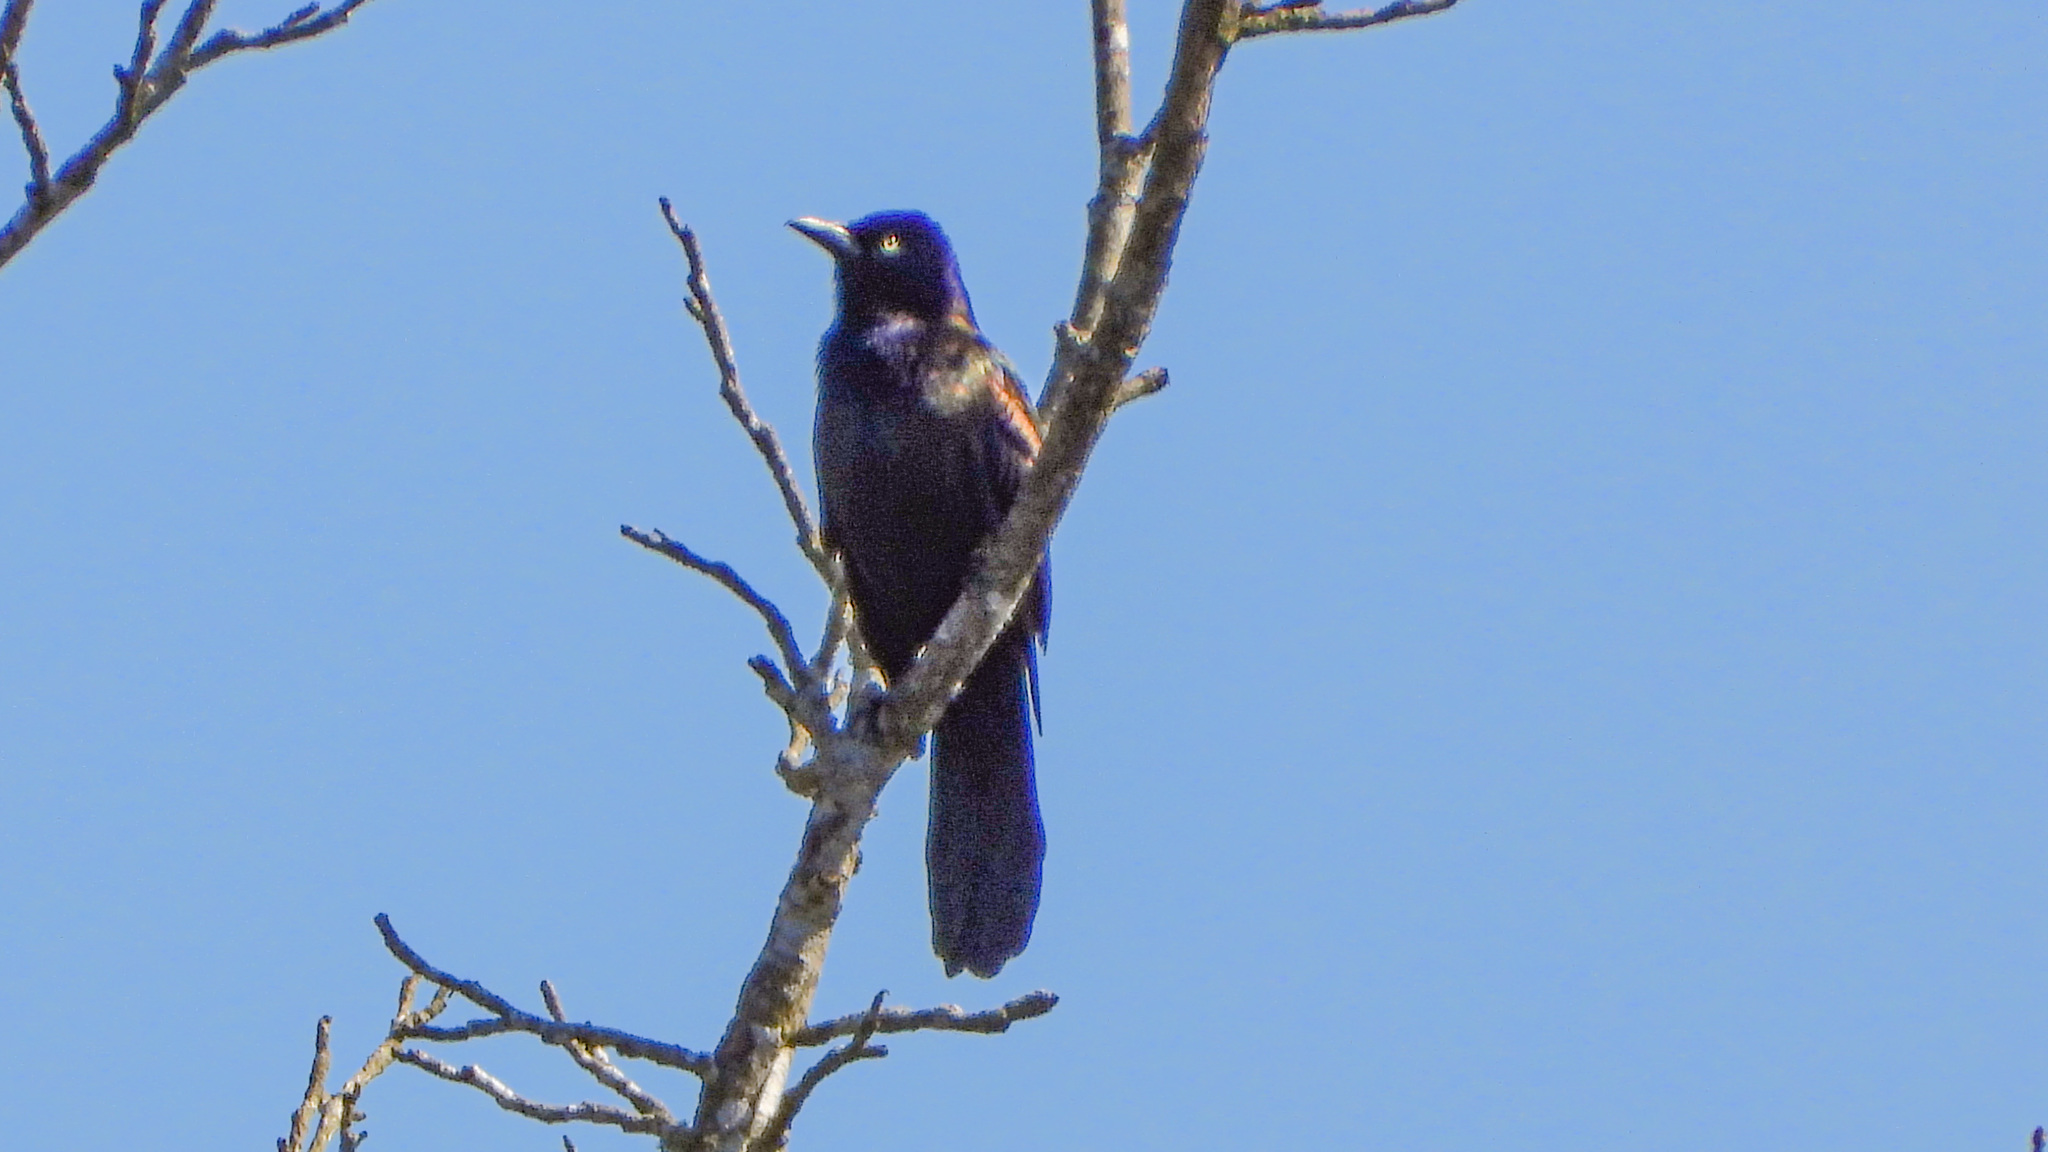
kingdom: Animalia
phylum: Chordata
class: Aves
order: Passeriformes
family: Icteridae
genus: Quiscalus
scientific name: Quiscalus quiscula
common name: Common grackle
